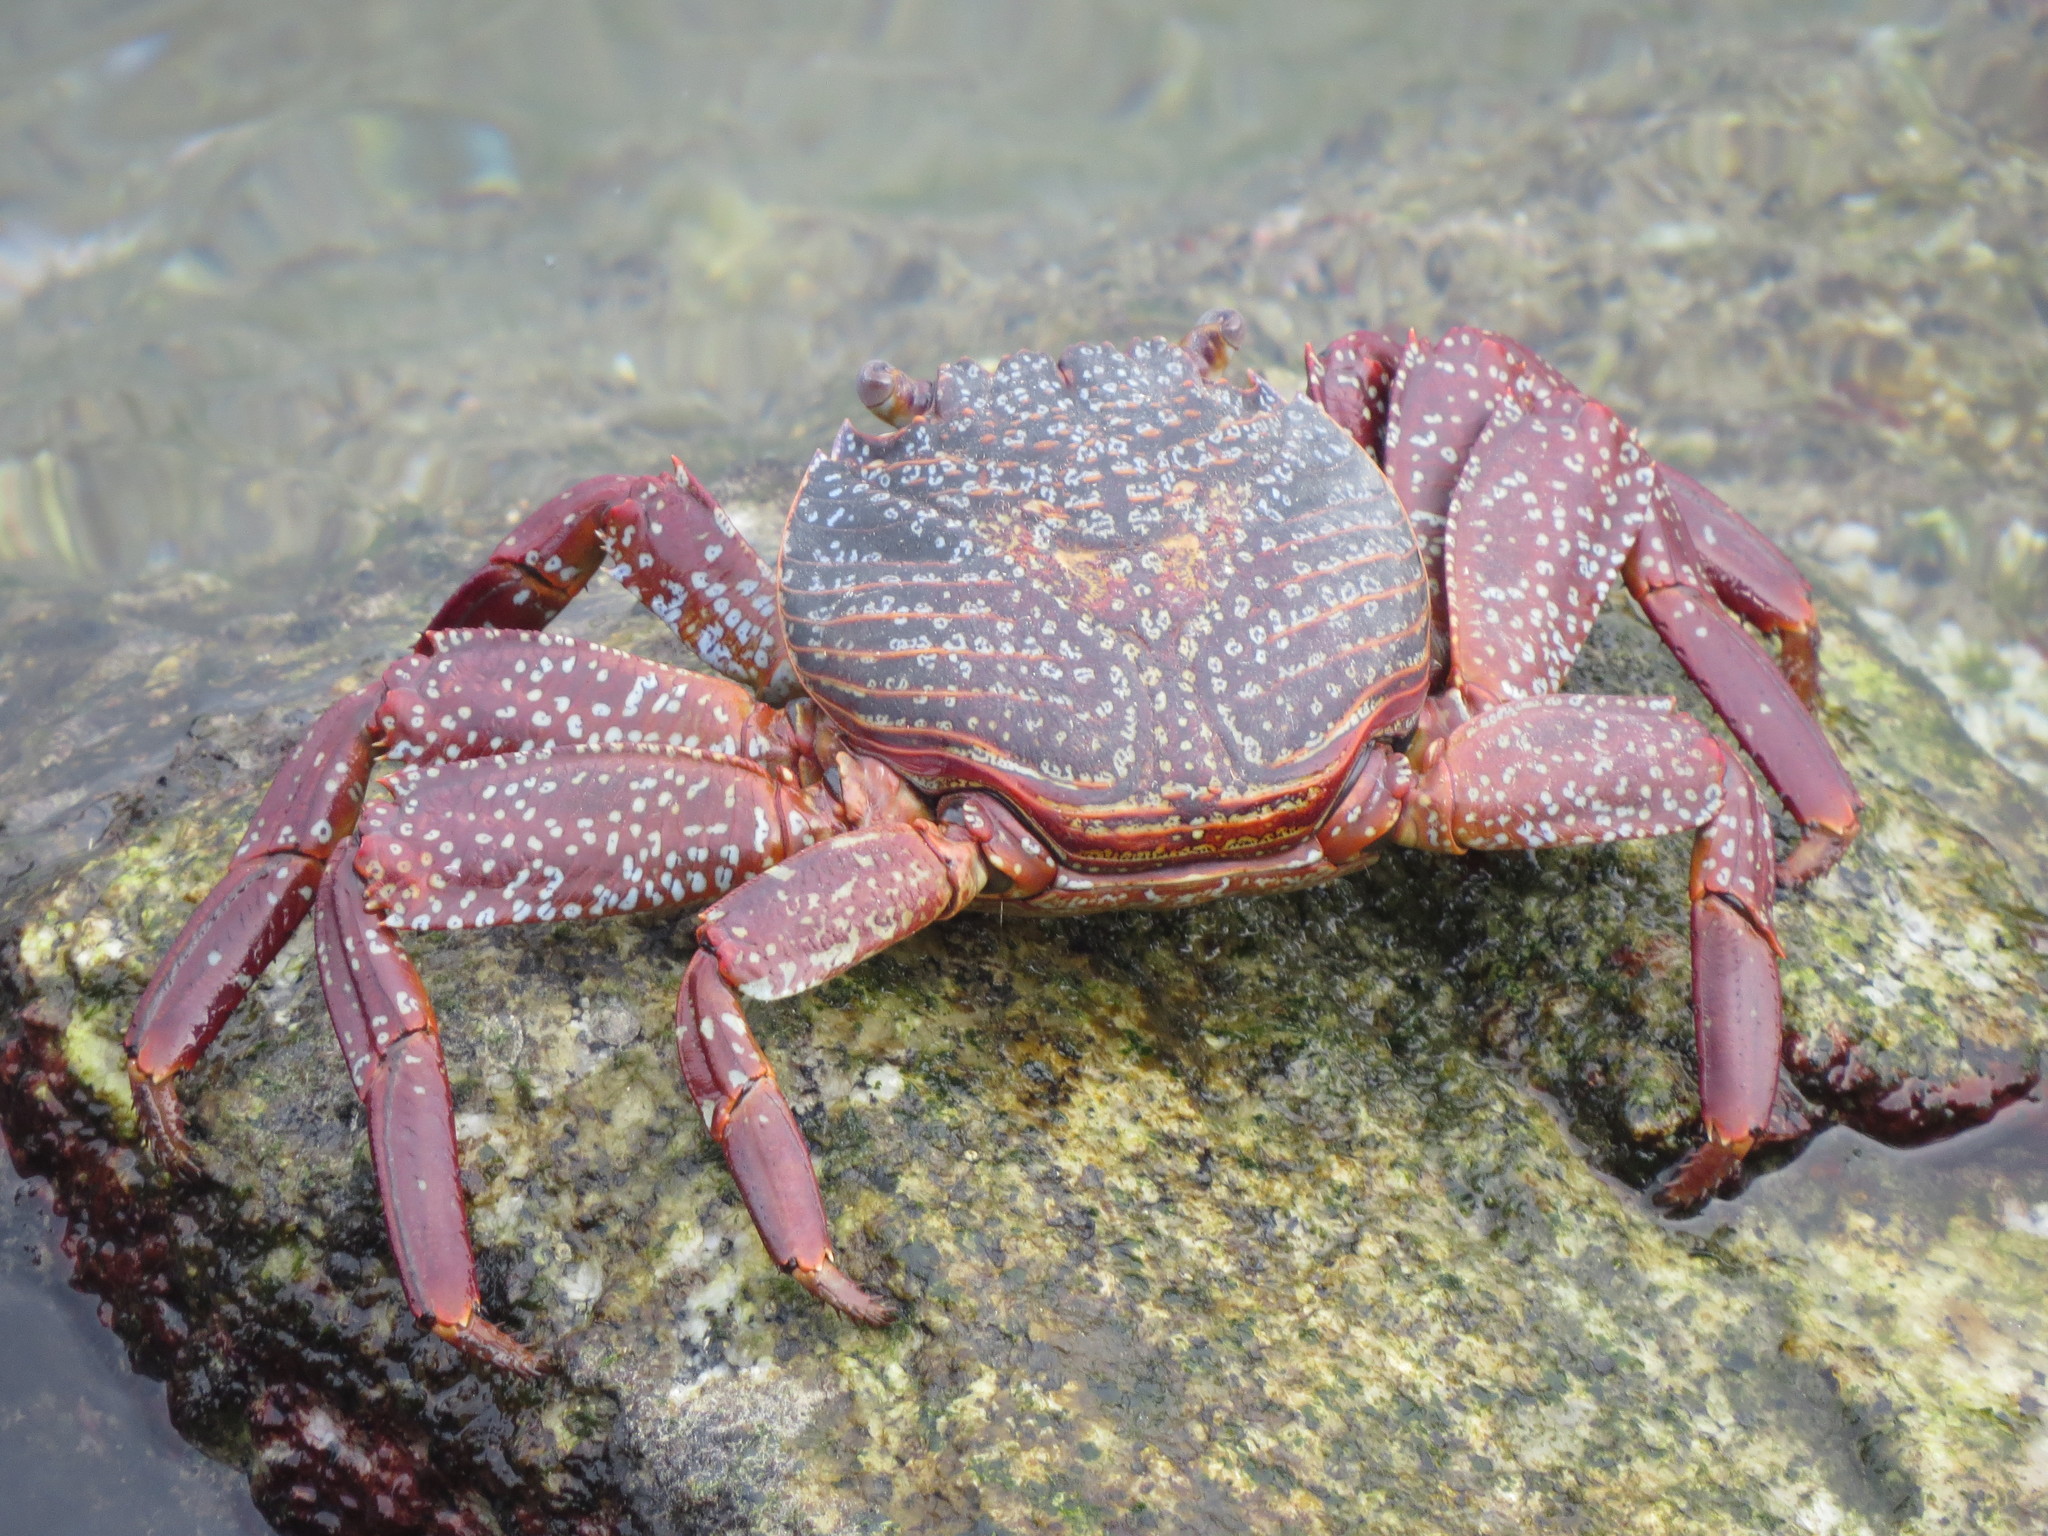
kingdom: Animalia
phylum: Arthropoda
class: Malacostraca
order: Decapoda
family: Grapsidae
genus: Grapsus
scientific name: Grapsus grapsus
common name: Sally lightfoot
